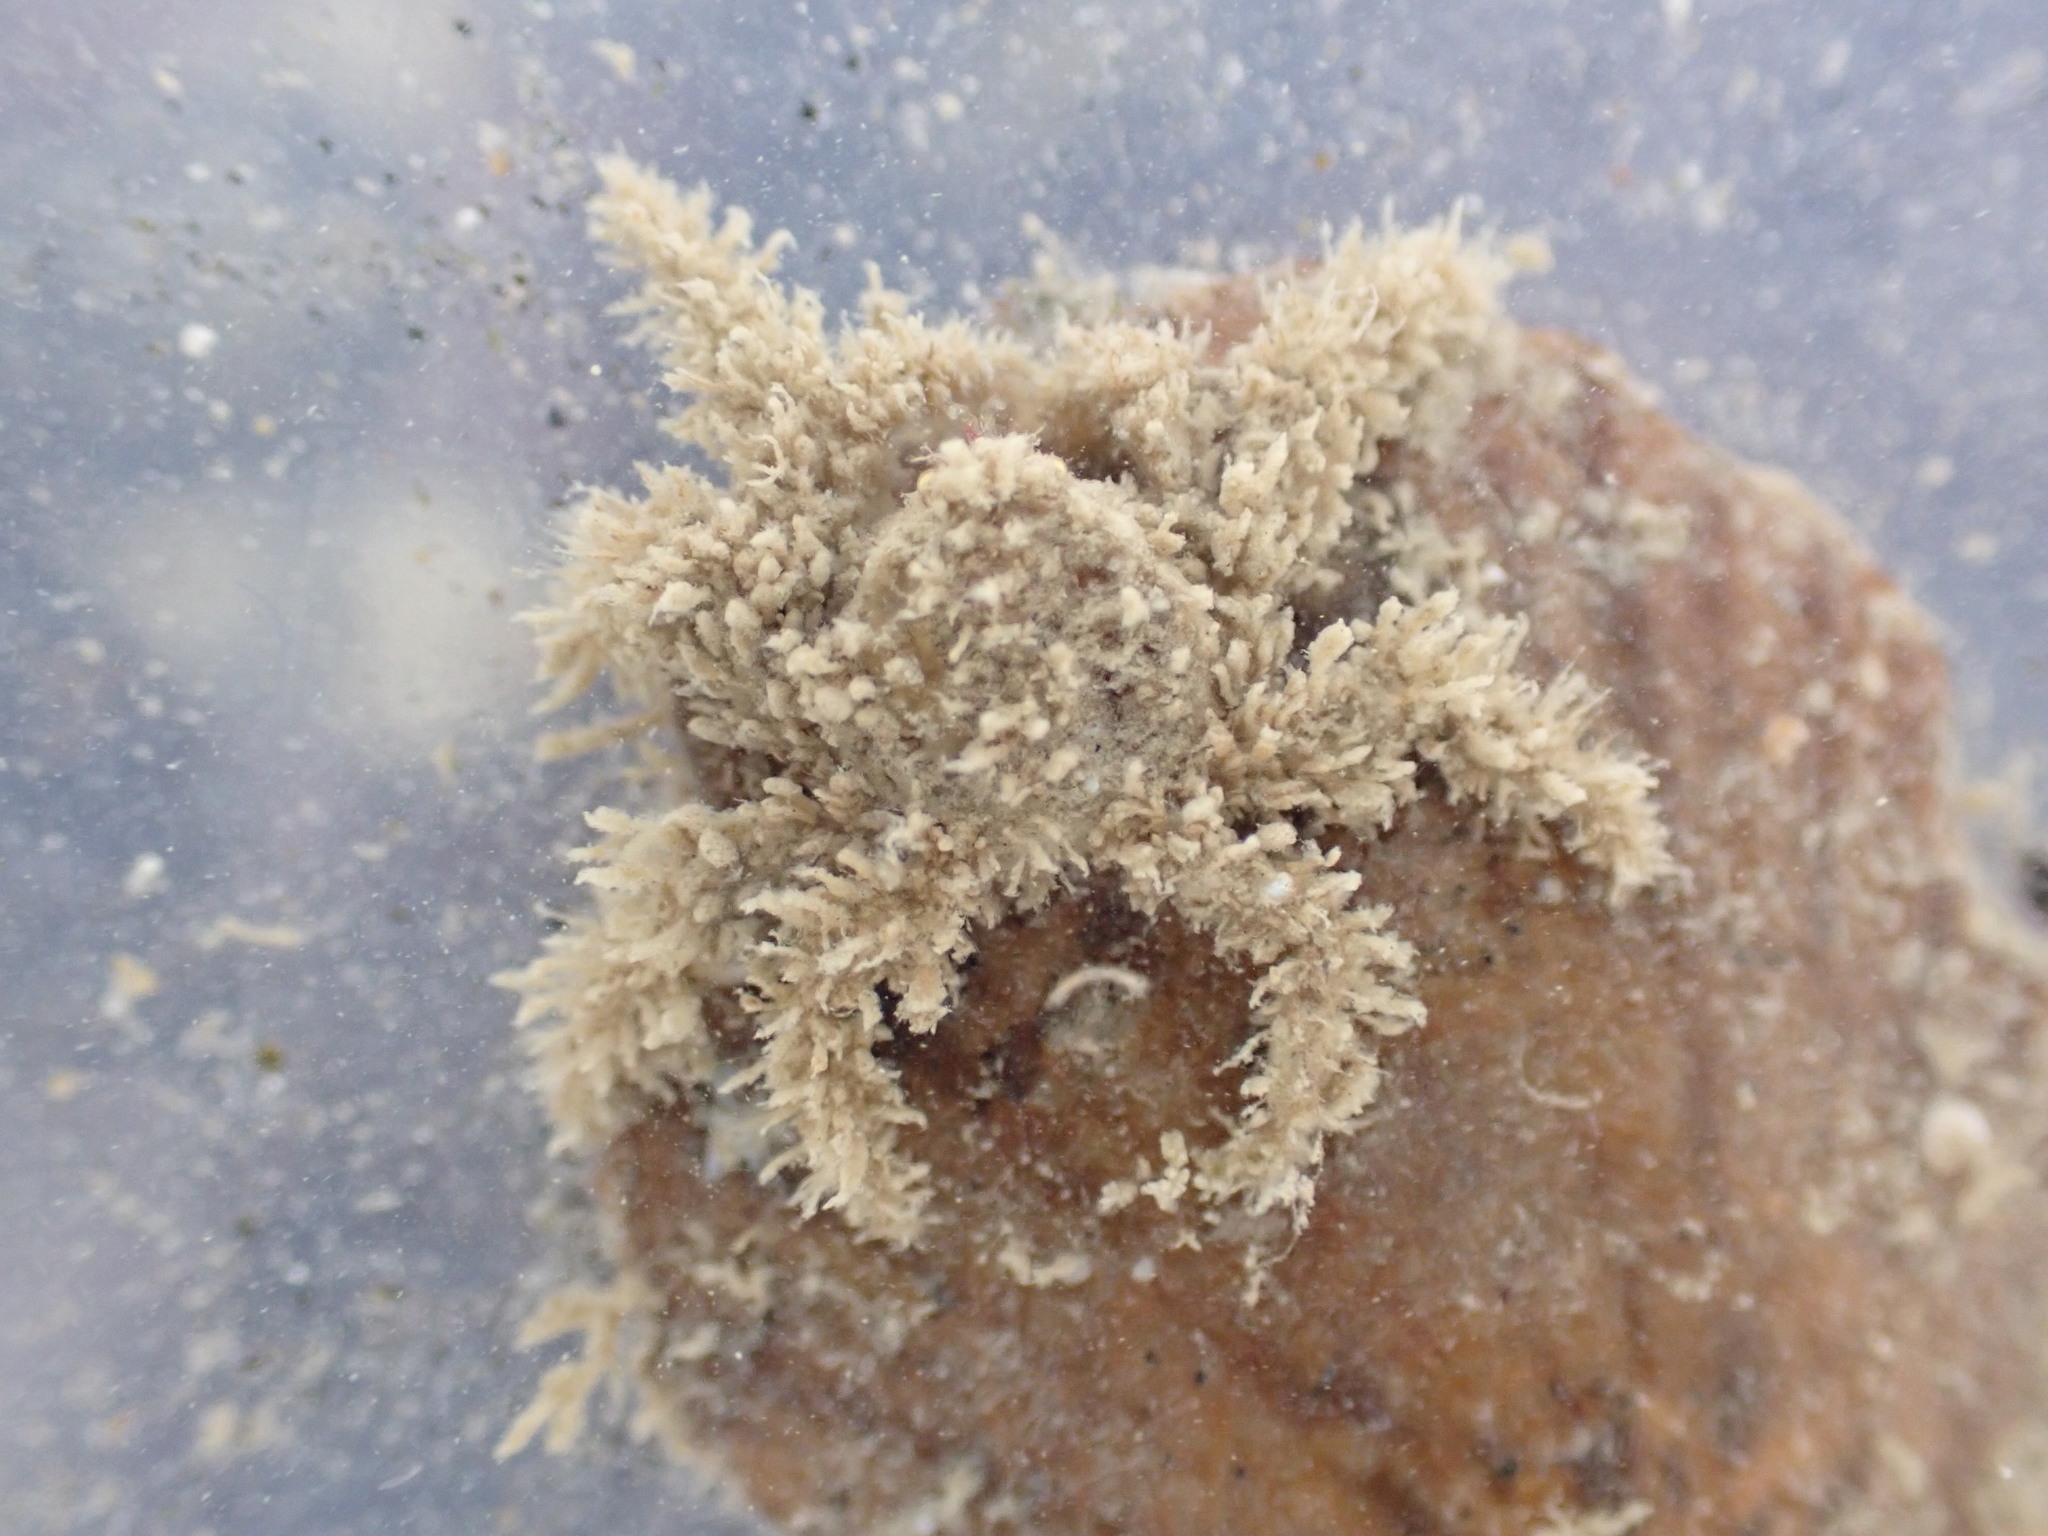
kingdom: Animalia
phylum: Arthropoda
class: Malacostraca
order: Decapoda
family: Hymenosomatidae
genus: Neohymenicus
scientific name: Neohymenicus pubescens
